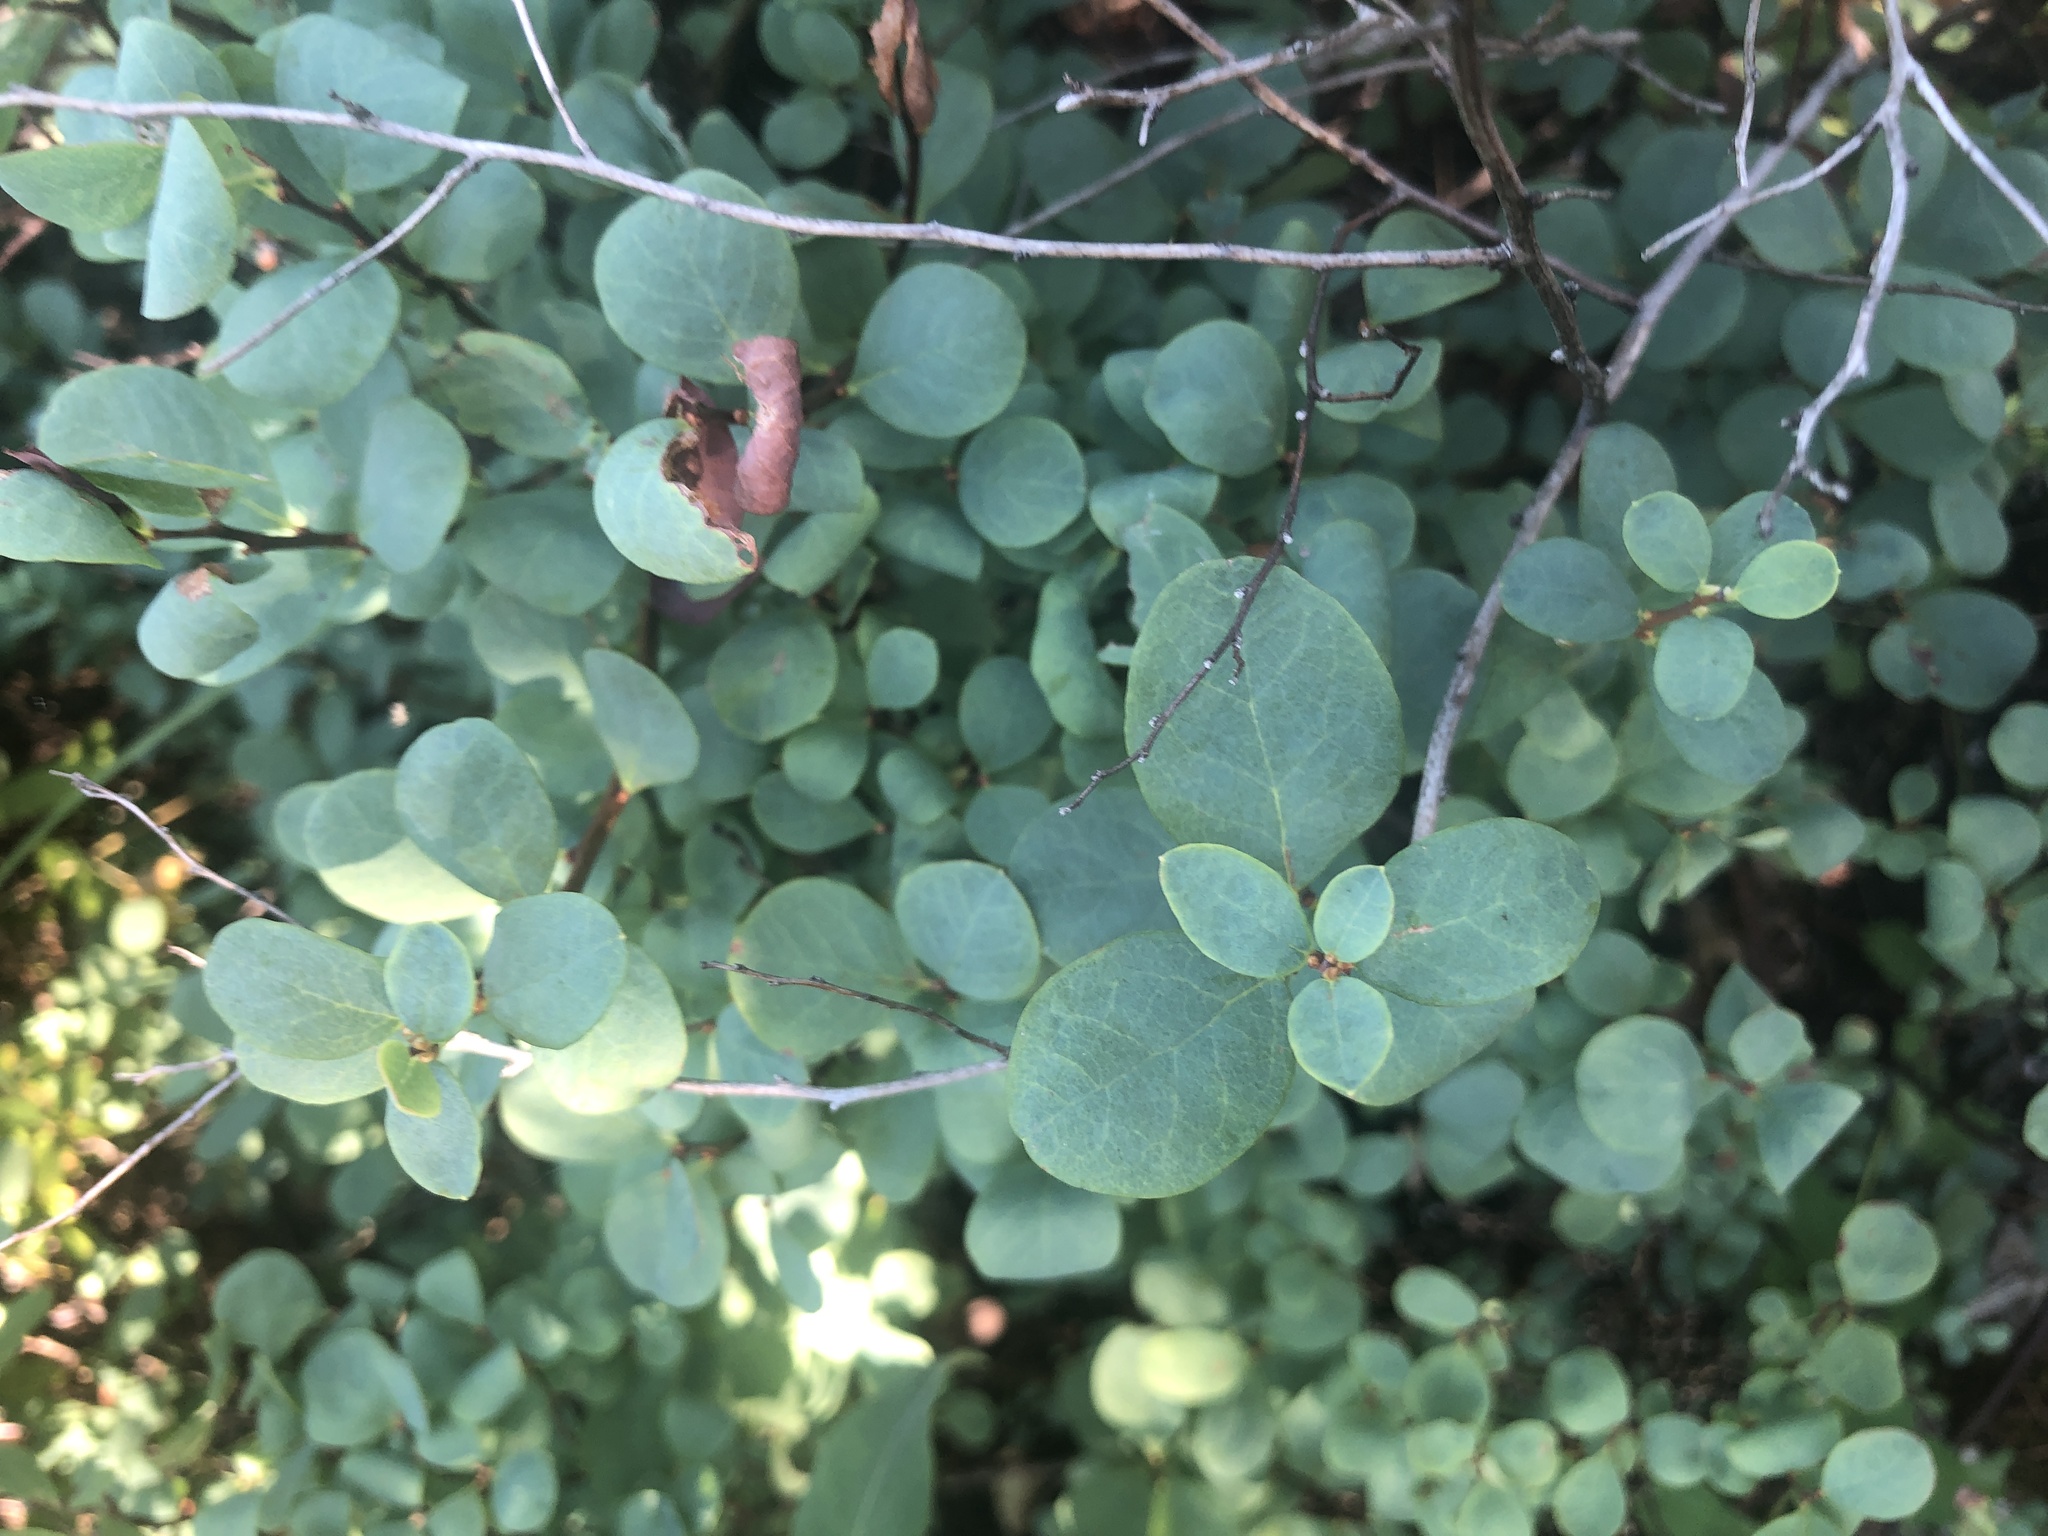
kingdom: Plantae
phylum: Tracheophyta
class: Magnoliopsida
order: Ericales
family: Ericaceae
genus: Vaccinium
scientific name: Vaccinium uliginosum
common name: Bog bilberry
